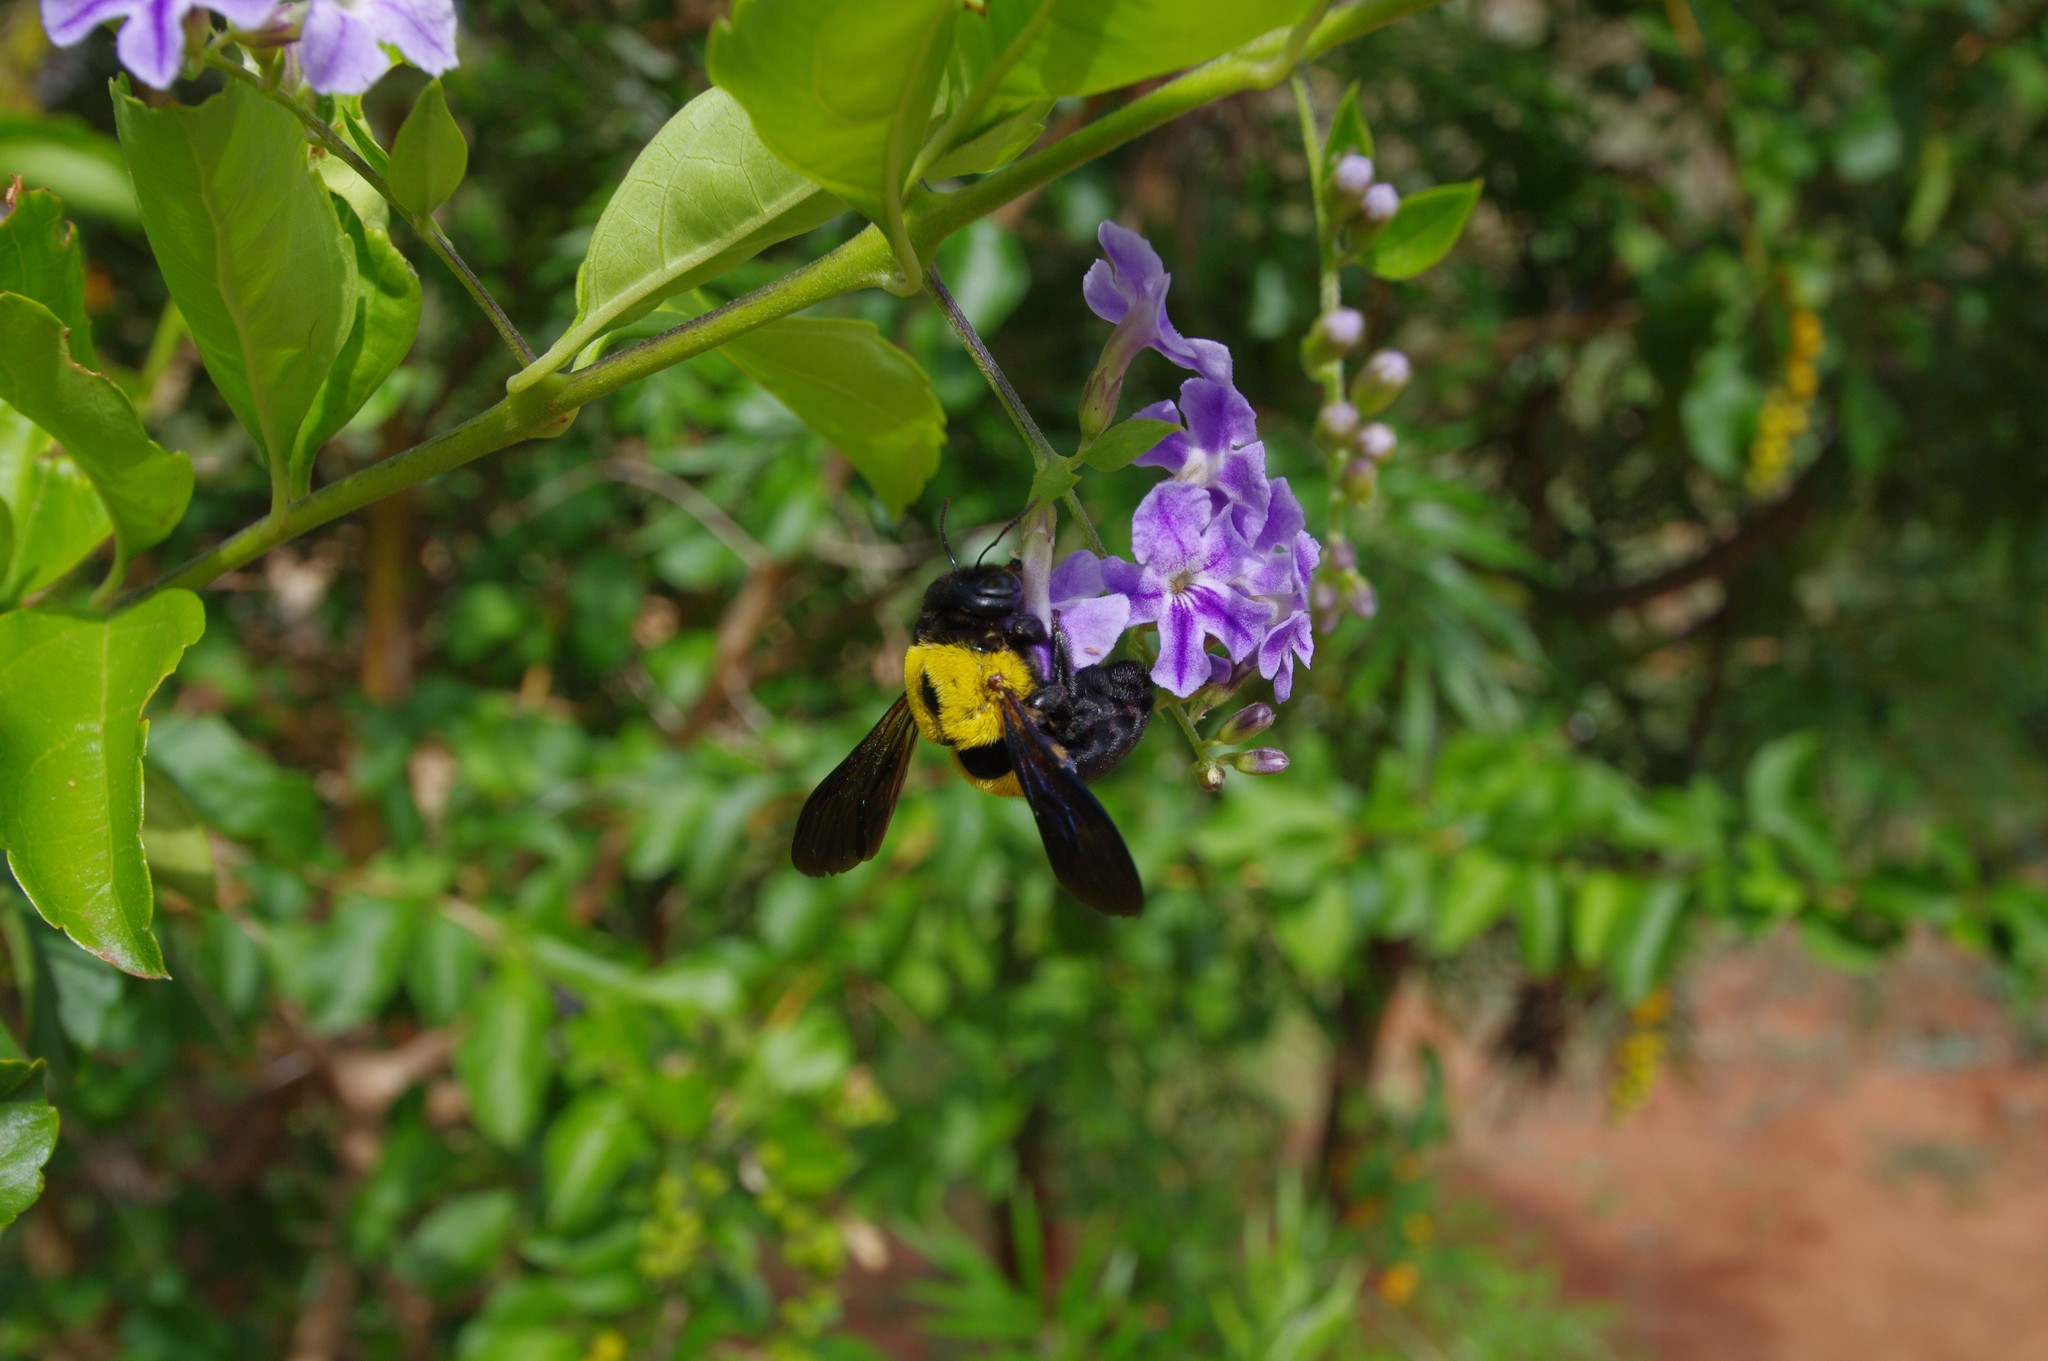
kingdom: Animalia
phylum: Arthropoda
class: Insecta
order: Hymenoptera
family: Apidae
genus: Xylocopa
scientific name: Xylocopa calens
